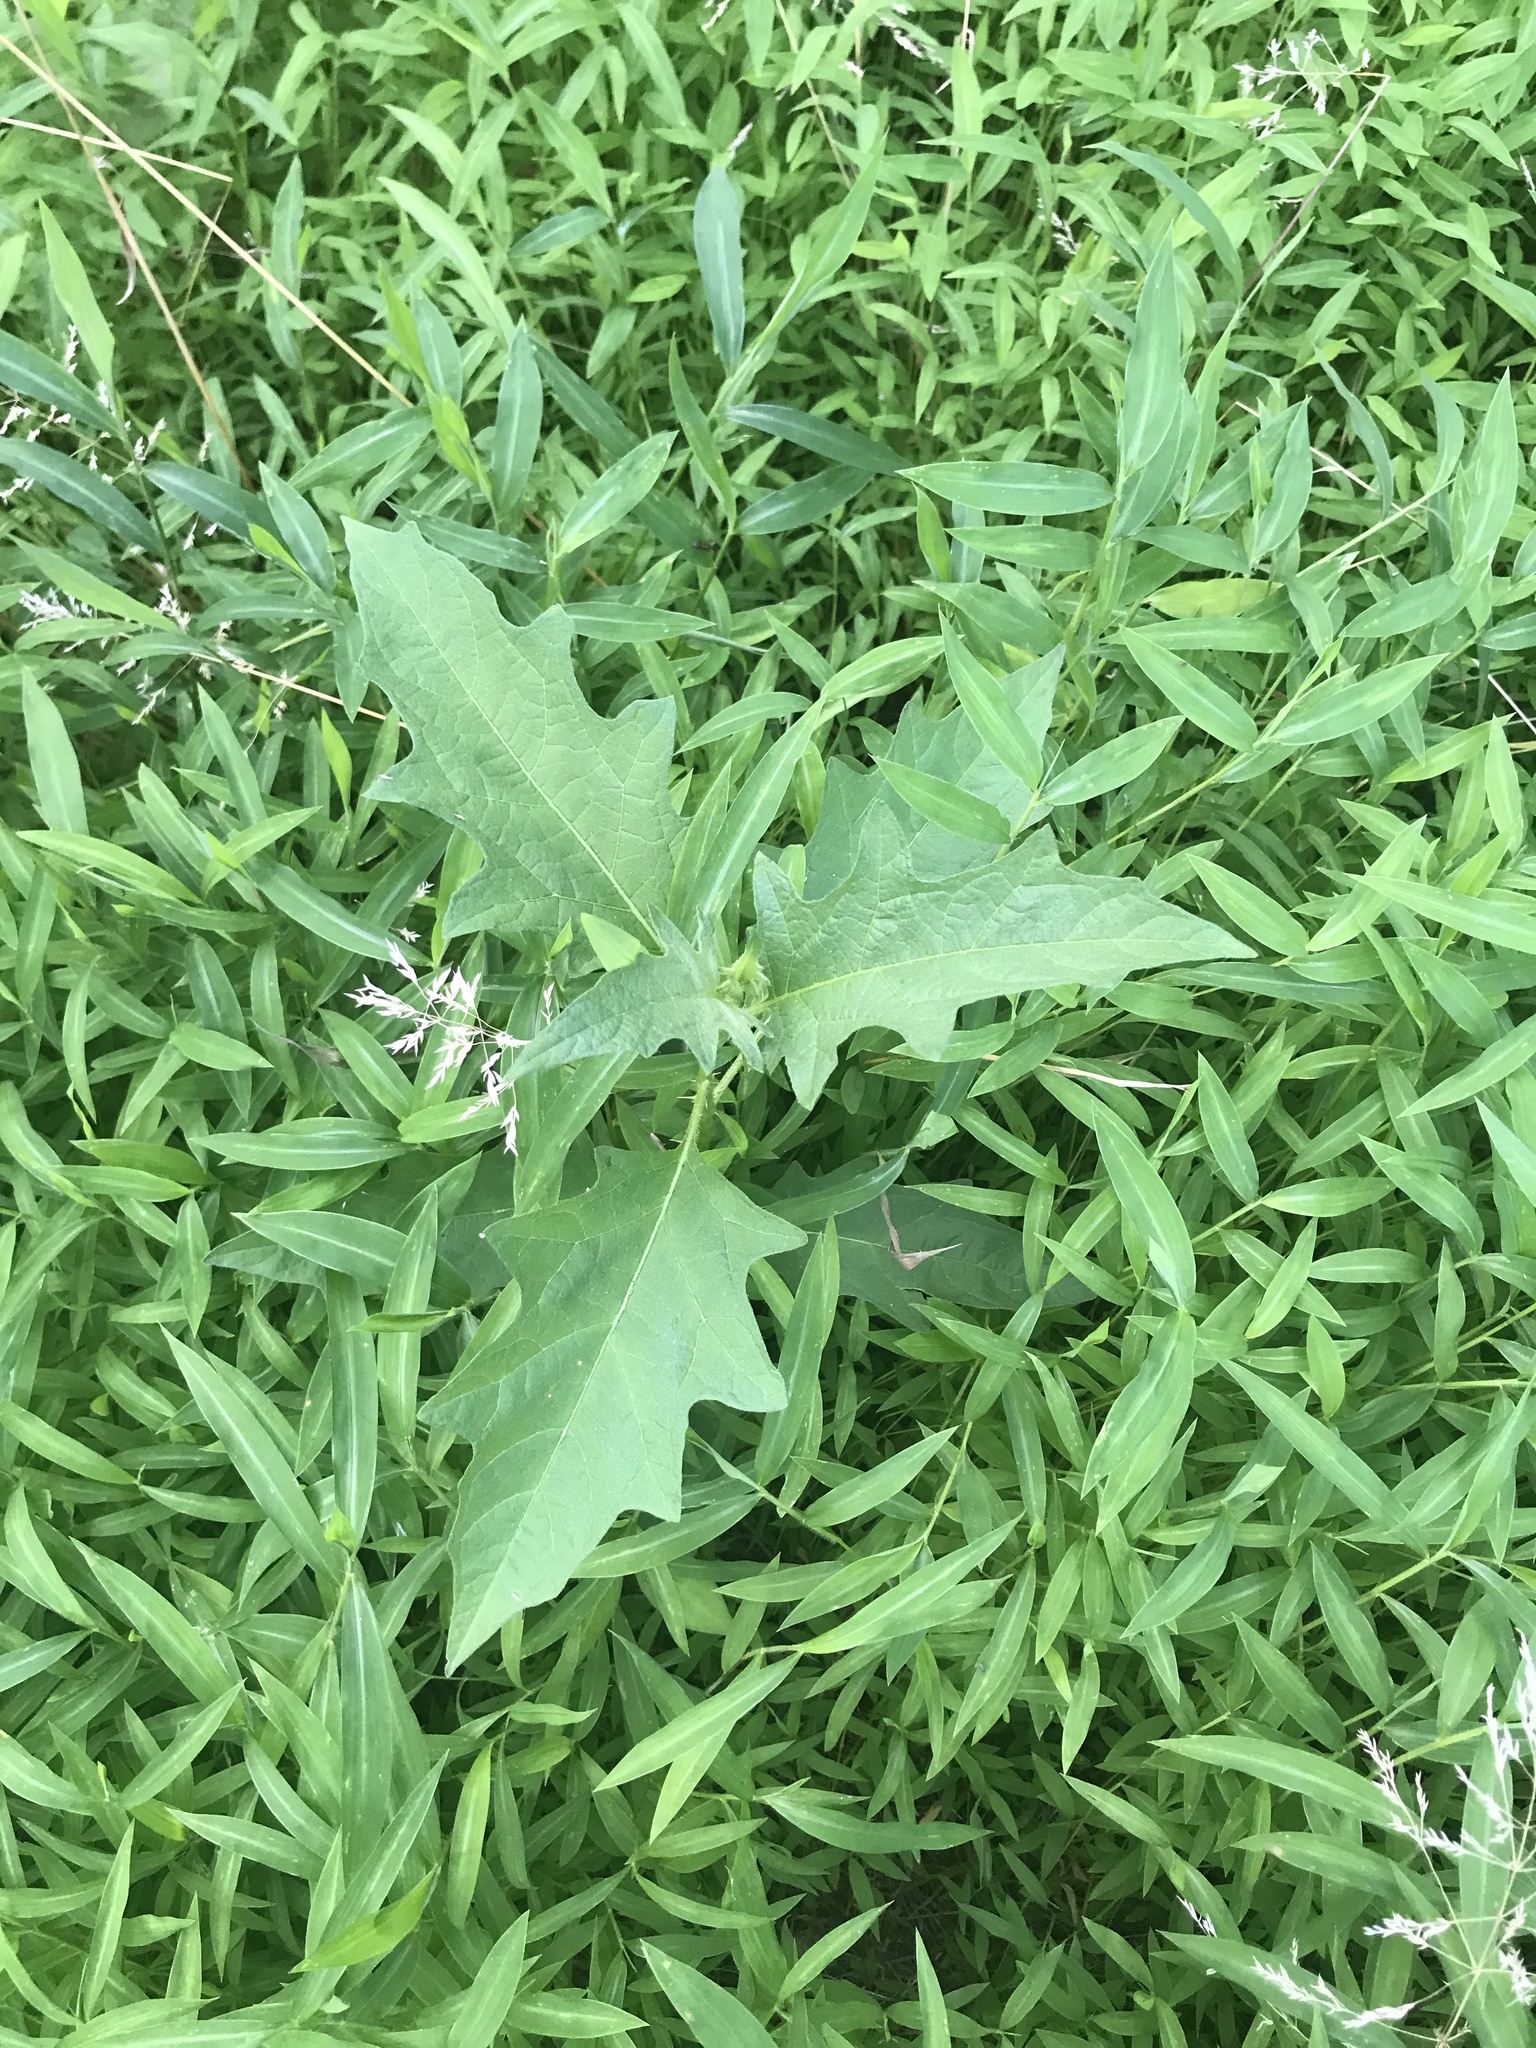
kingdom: Plantae
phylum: Tracheophyta
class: Magnoliopsida
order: Solanales
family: Solanaceae
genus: Solanum
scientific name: Solanum carolinense
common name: Horse-nettle
